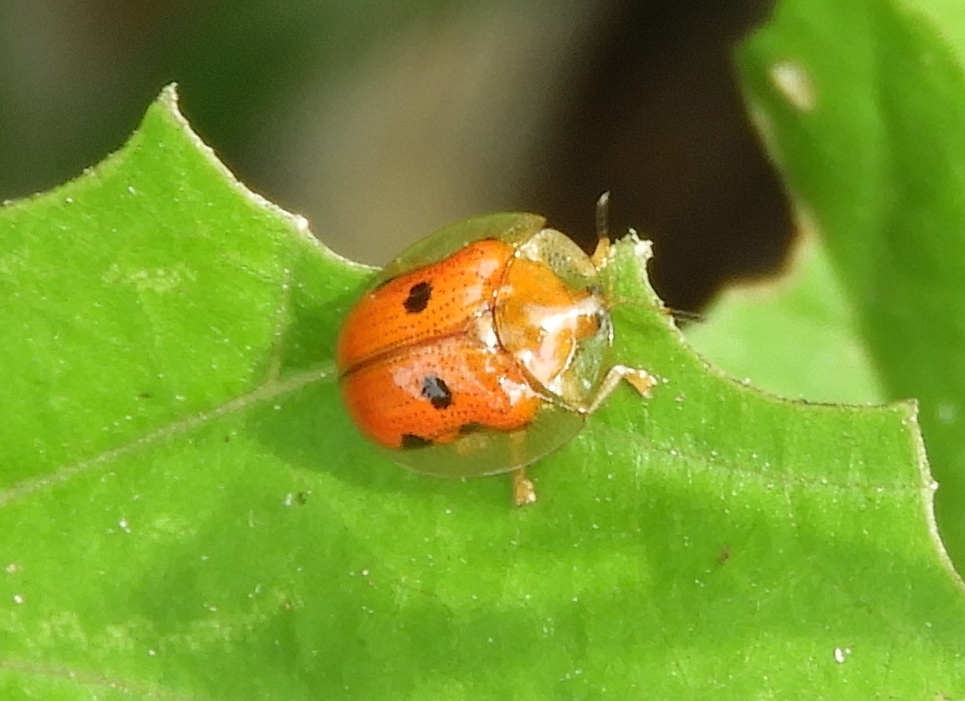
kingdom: Animalia
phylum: Arthropoda
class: Insecta
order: Coleoptera
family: Chrysomelidae
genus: Charidotella
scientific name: Charidotella sexpunctata
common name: Golden tortoise beetle
